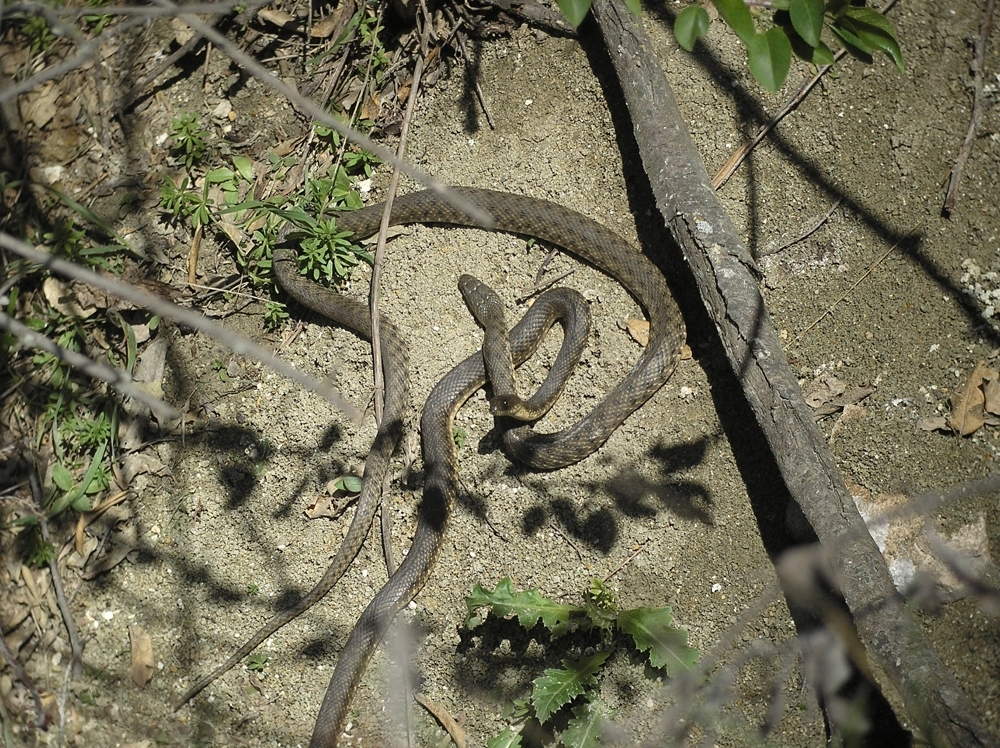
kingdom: Animalia
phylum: Chordata
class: Squamata
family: Colubridae
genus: Natrix
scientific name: Natrix tessellata
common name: Dice snake
